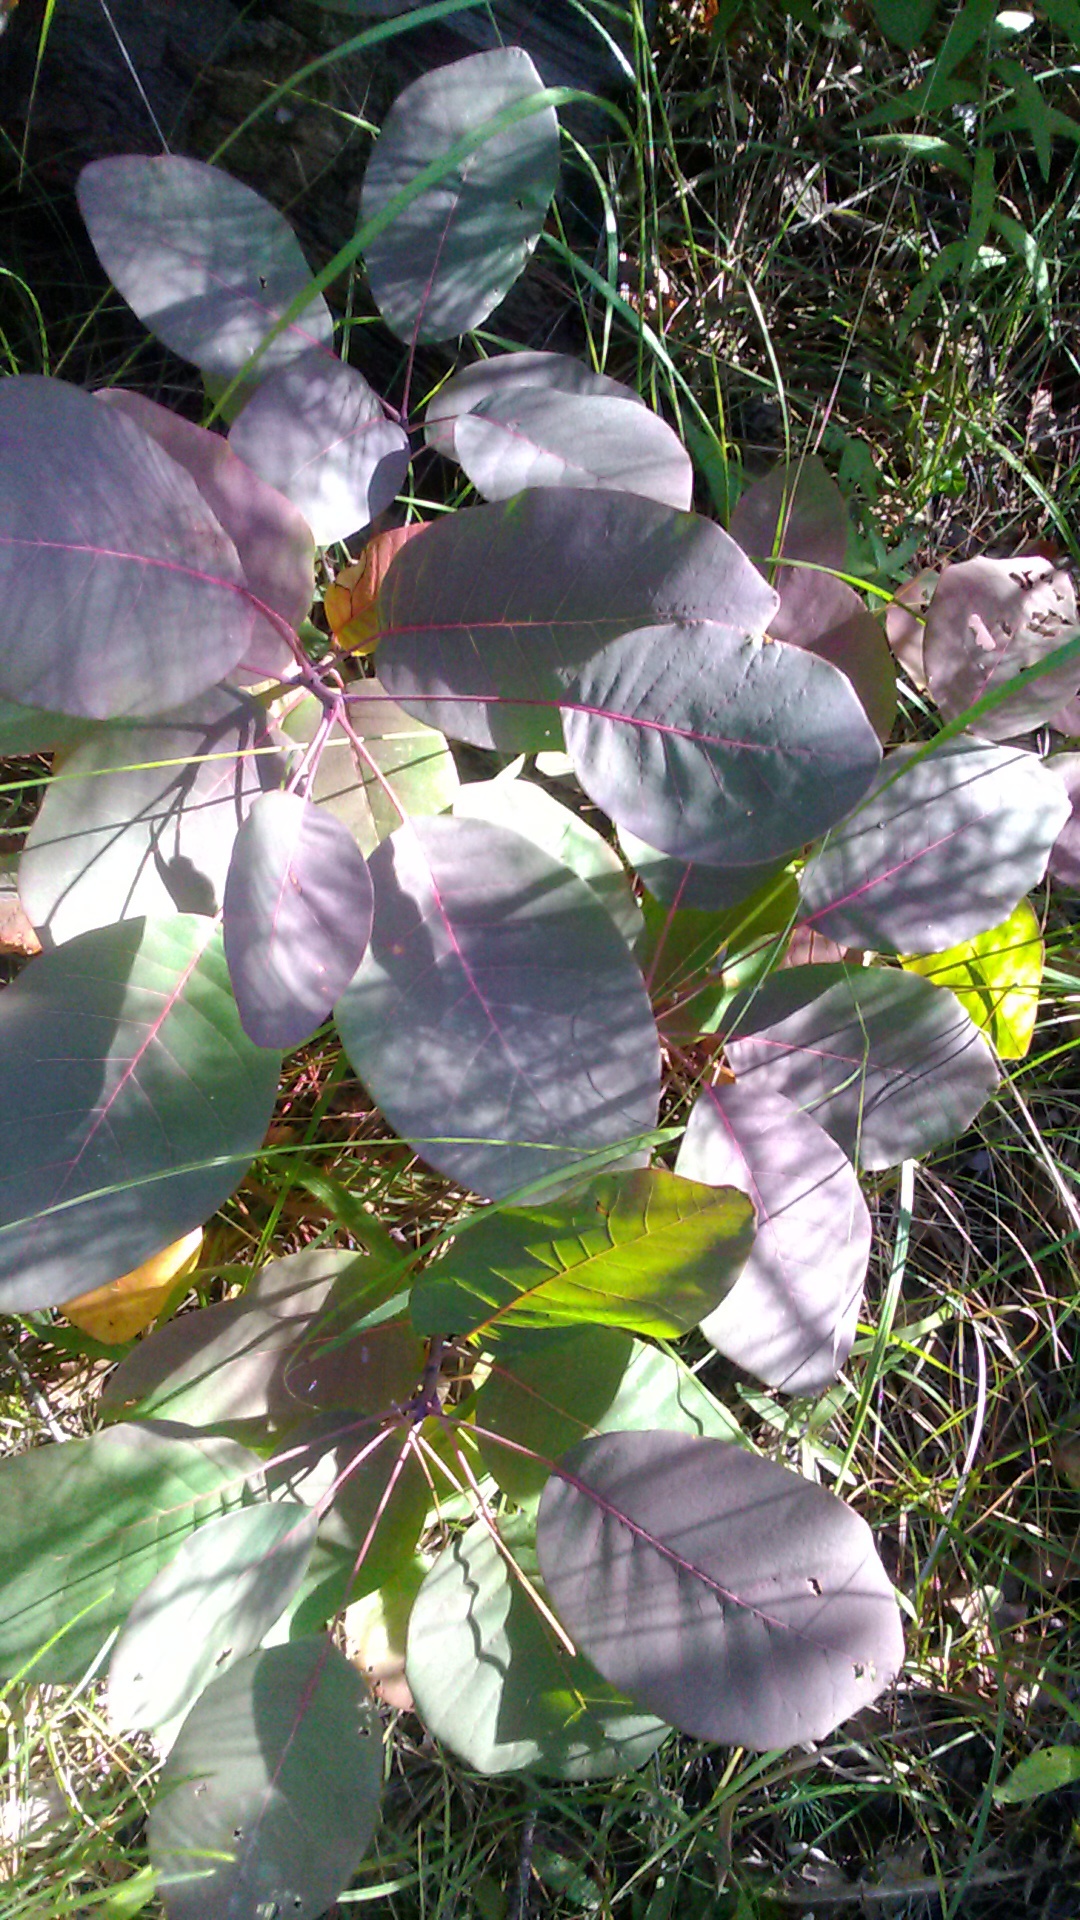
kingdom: Plantae
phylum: Tracheophyta
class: Magnoliopsida
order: Sapindales
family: Anacardiaceae
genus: Cotinus
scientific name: Cotinus coggygria
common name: Smoke-tree
